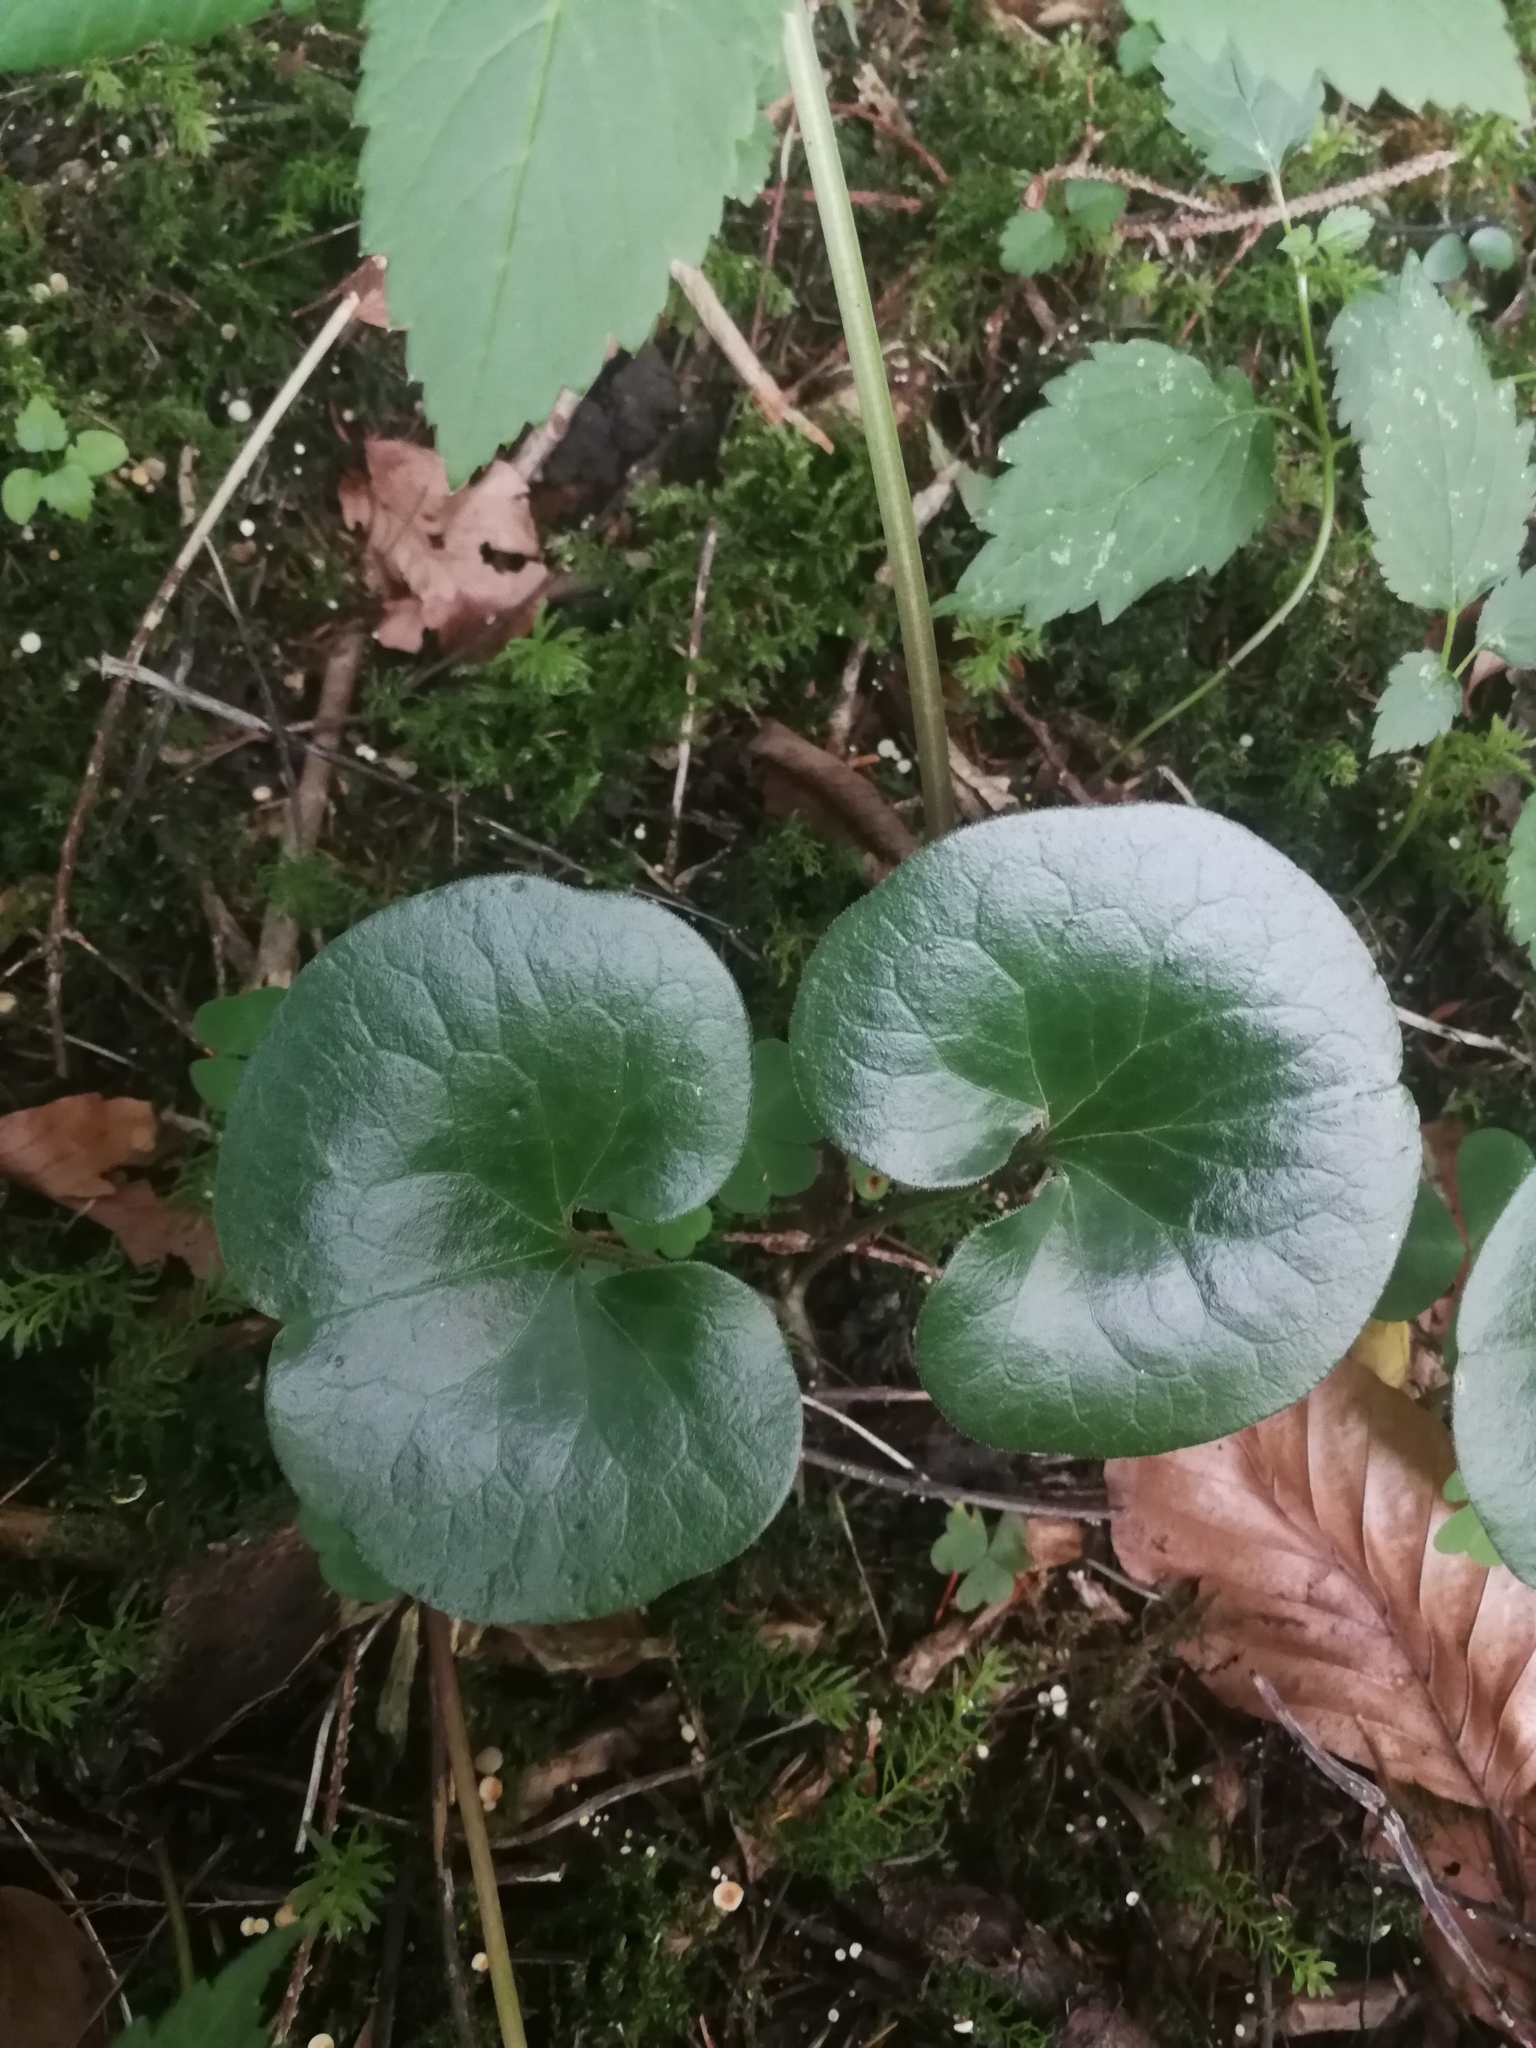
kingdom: Plantae
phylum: Tracheophyta
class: Magnoliopsida
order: Piperales
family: Aristolochiaceae
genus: Asarum
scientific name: Asarum europaeum
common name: Asarabacca
